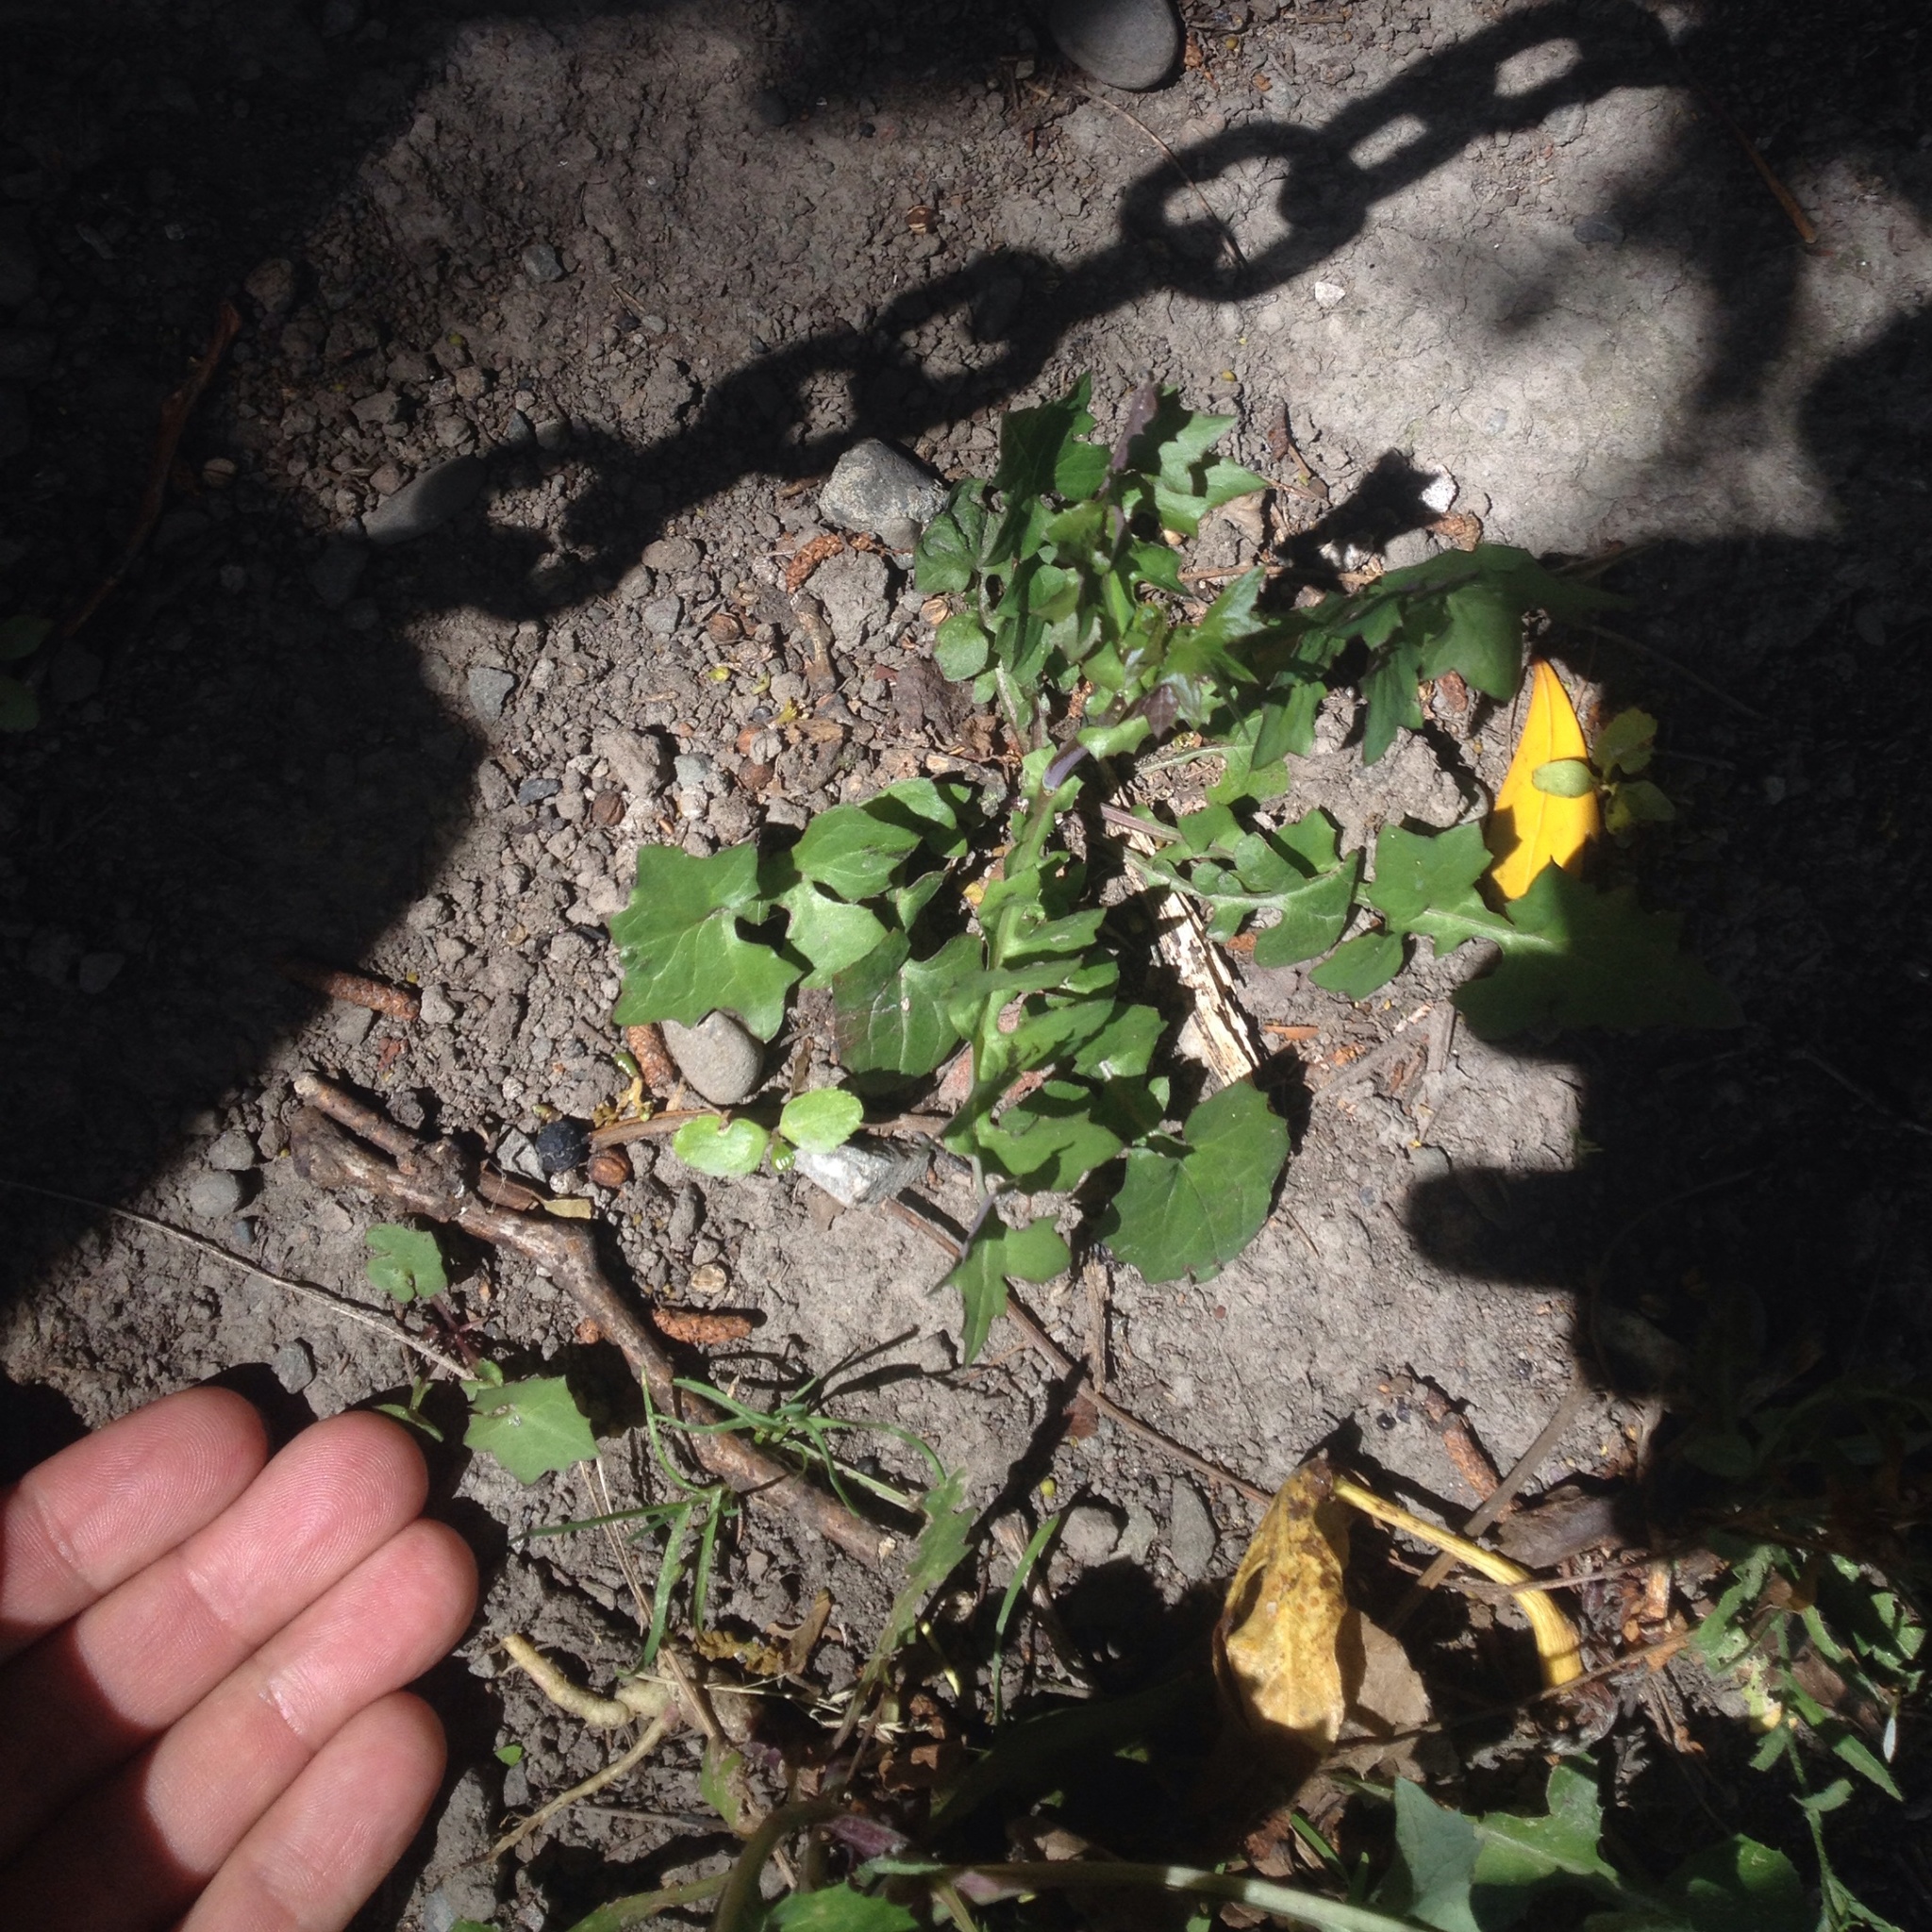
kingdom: Plantae
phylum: Tracheophyta
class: Magnoliopsida
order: Asterales
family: Asteraceae
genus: Mycelis
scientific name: Mycelis muralis
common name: Wall lettuce
